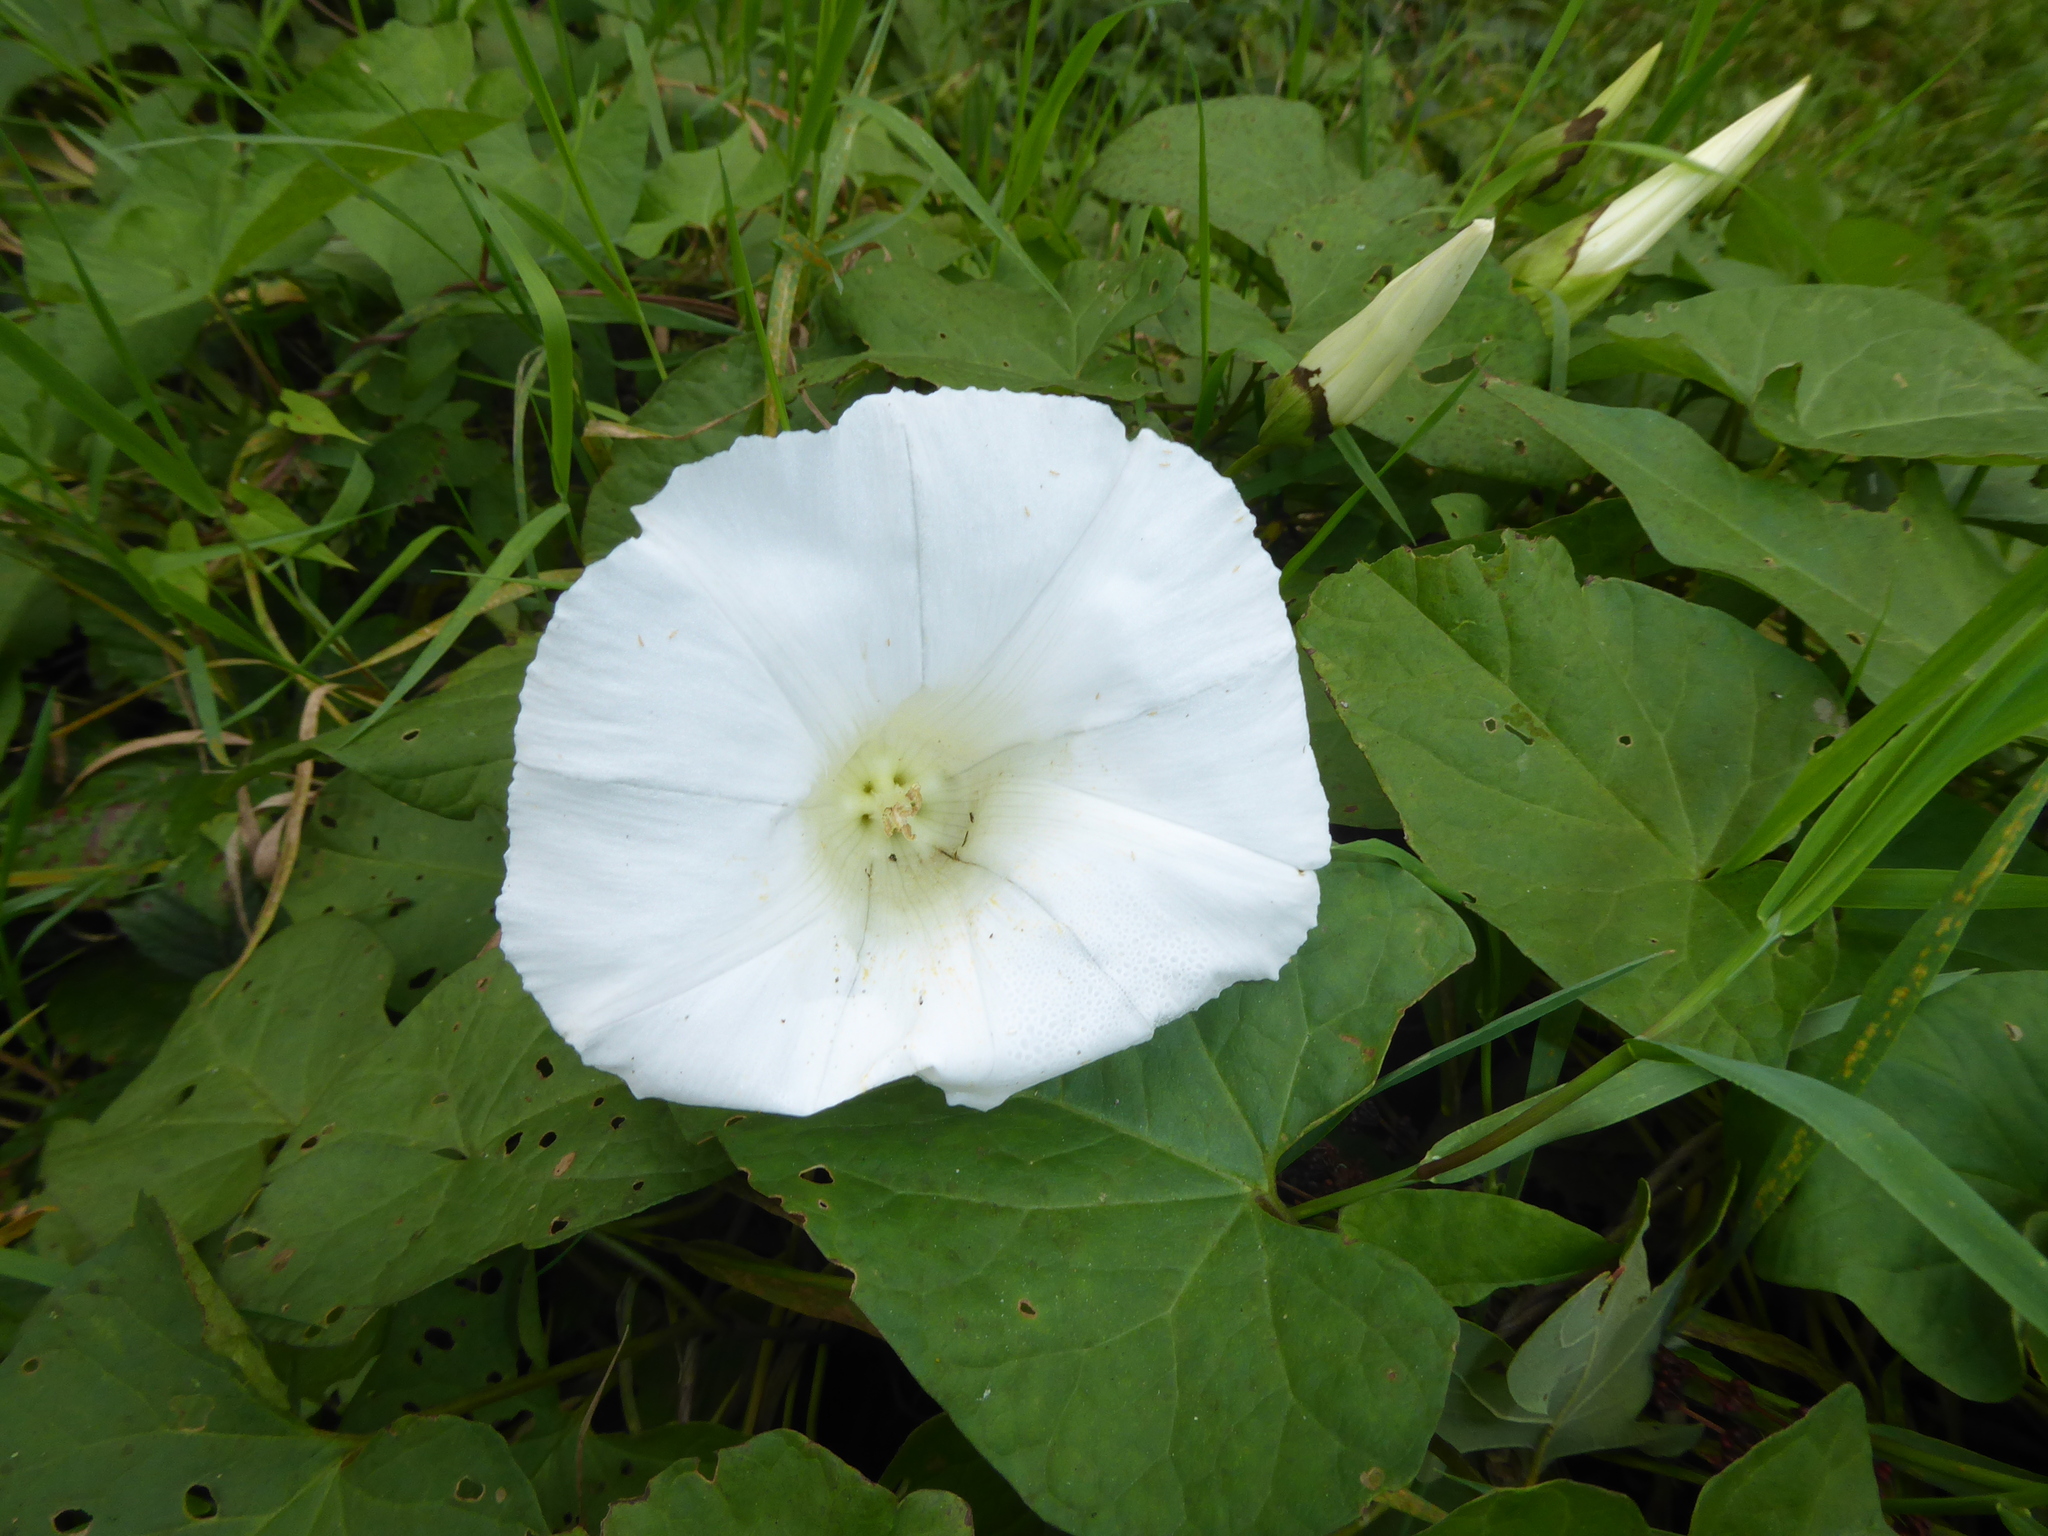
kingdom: Plantae
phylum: Tracheophyta
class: Magnoliopsida
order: Solanales
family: Convolvulaceae
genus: Calystegia
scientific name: Calystegia lucana
